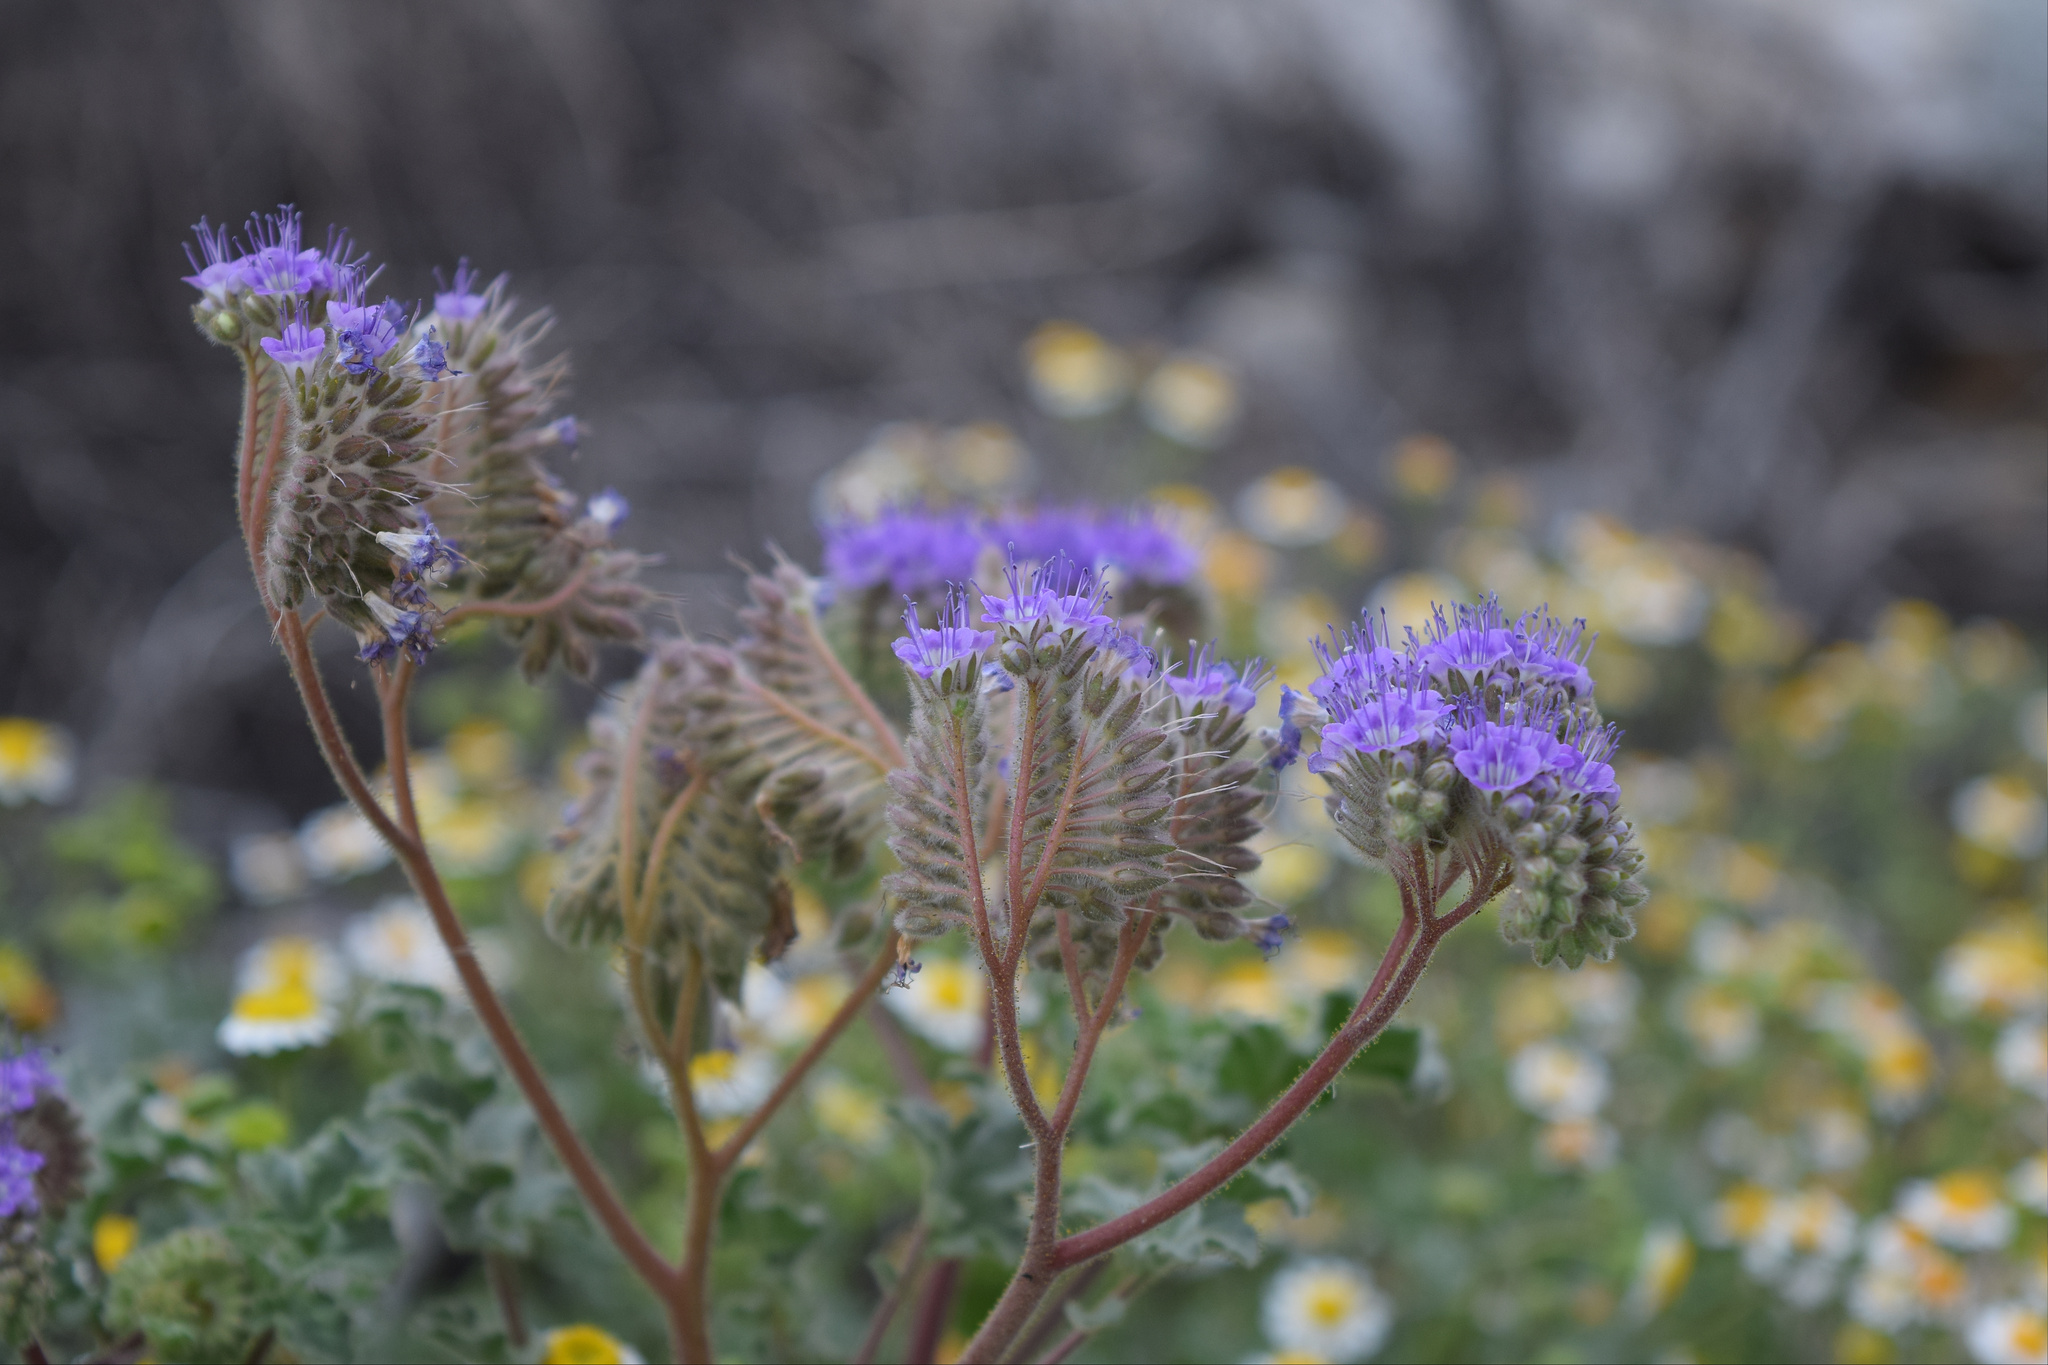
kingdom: Plantae
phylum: Tracheophyta
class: Magnoliopsida
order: Boraginales
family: Hydrophyllaceae
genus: Phacelia
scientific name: Phacelia pedicellata
